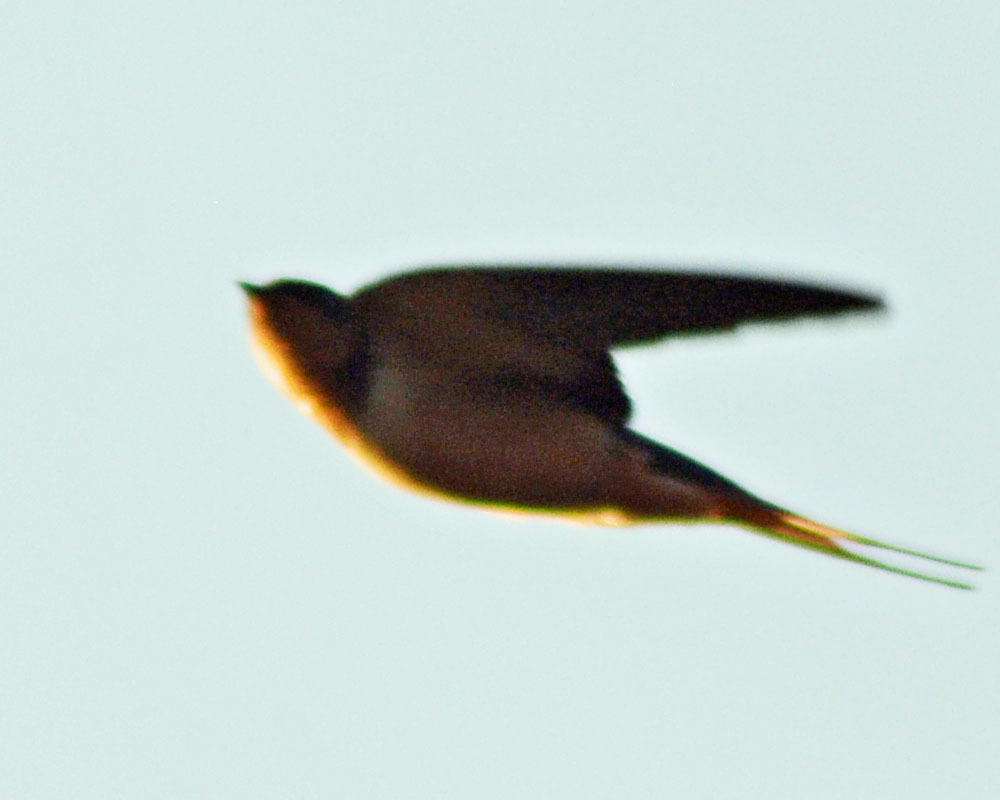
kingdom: Animalia
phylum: Chordata
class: Aves
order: Passeriformes
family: Hirundinidae
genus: Hirundo
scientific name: Hirundo rustica
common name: Barn swallow
